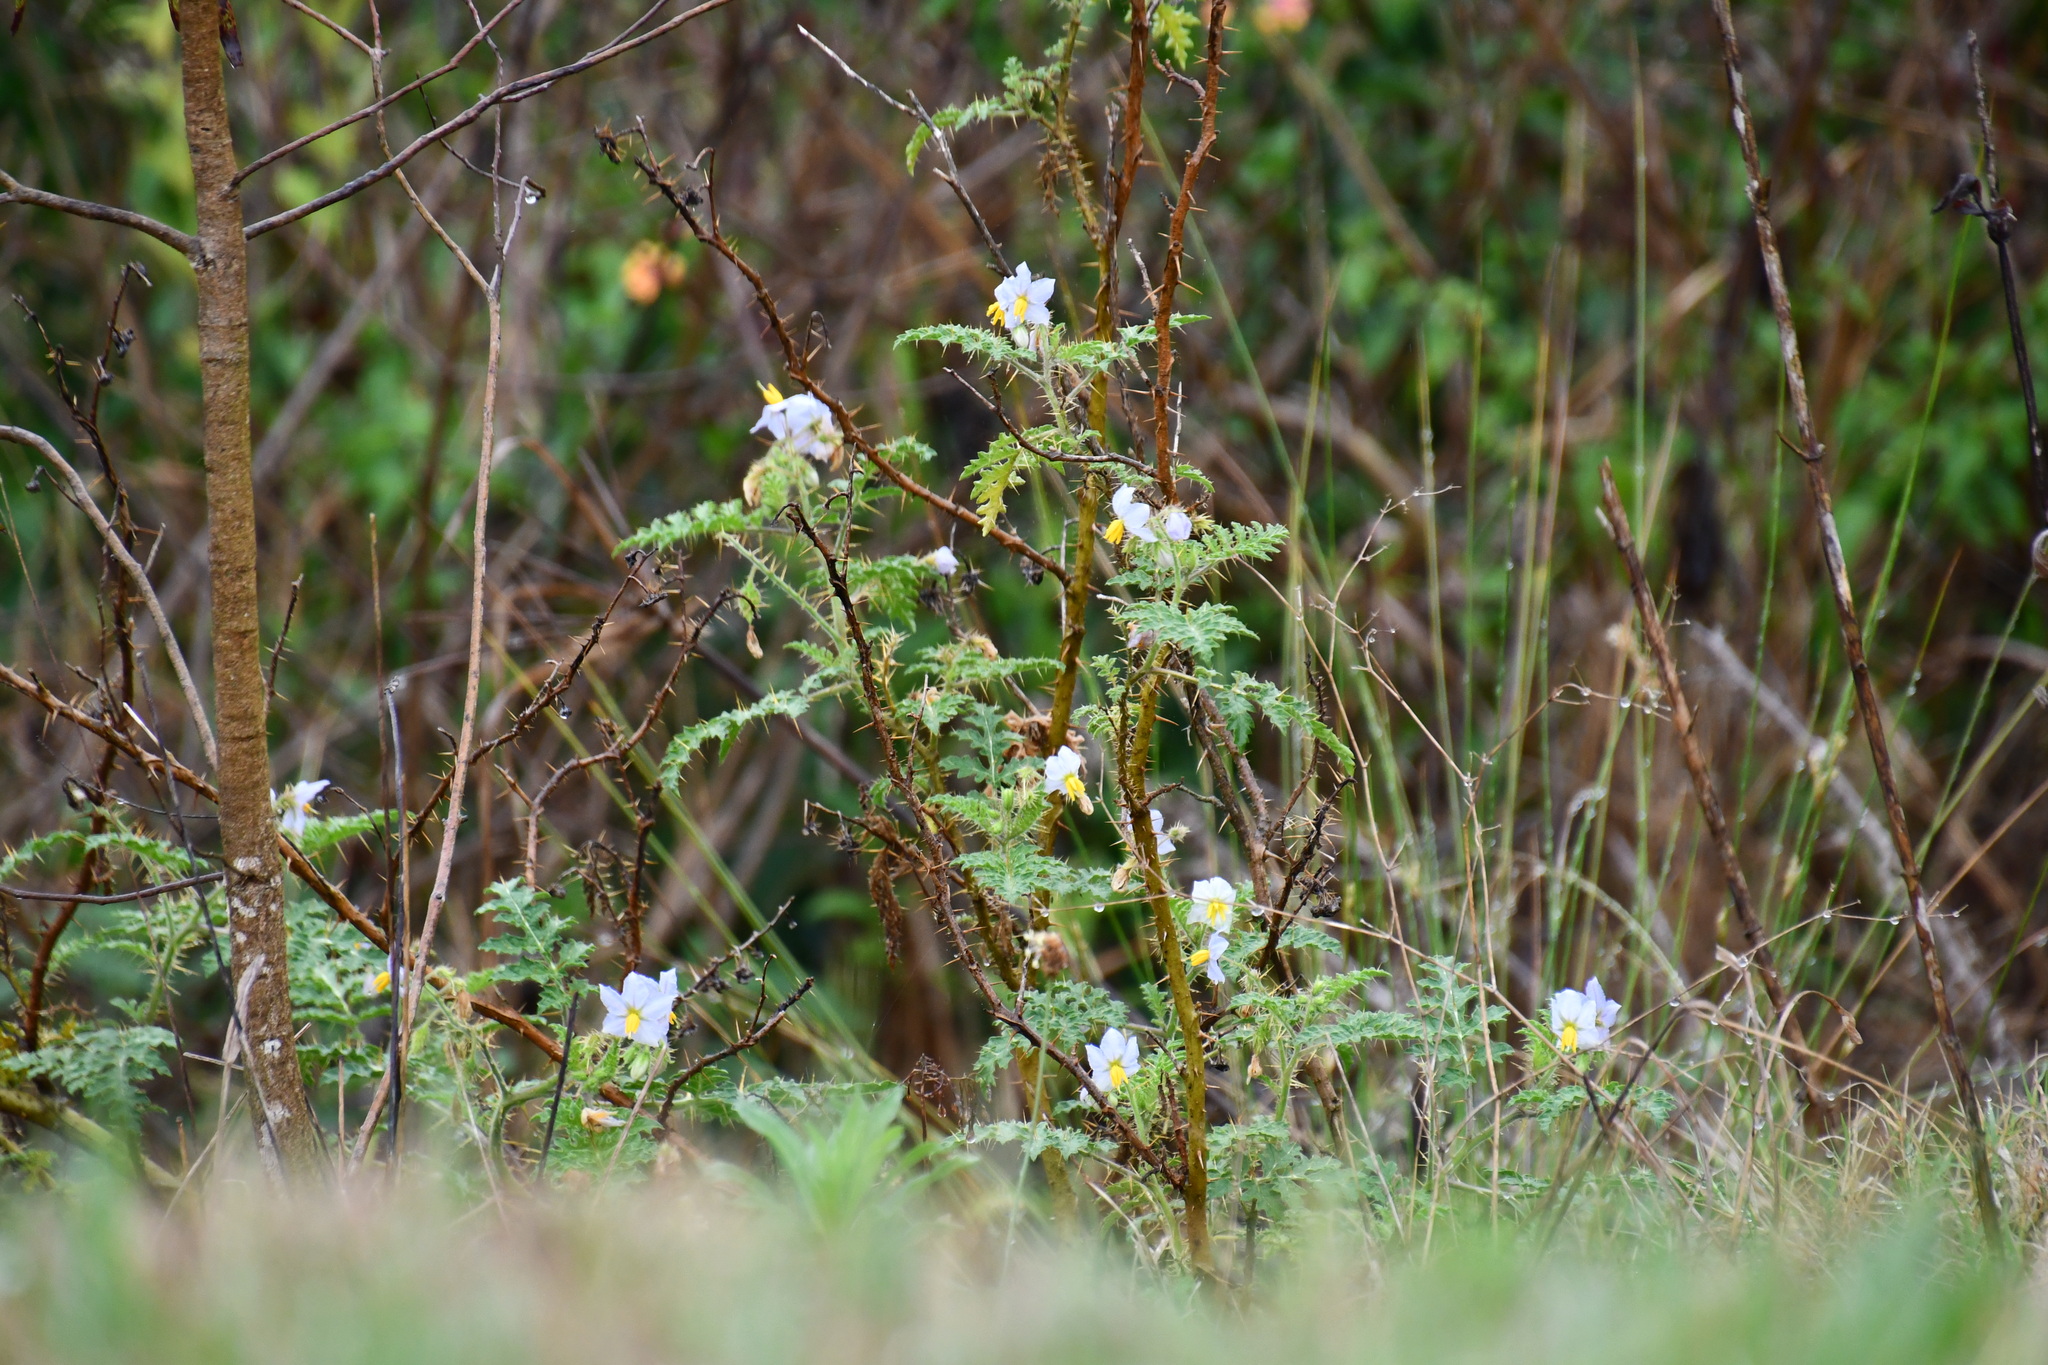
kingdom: Plantae
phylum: Tracheophyta
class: Magnoliopsida
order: Solanales
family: Solanaceae
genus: Solanum
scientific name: Solanum sisymbriifolium
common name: Red buffalo-bur
